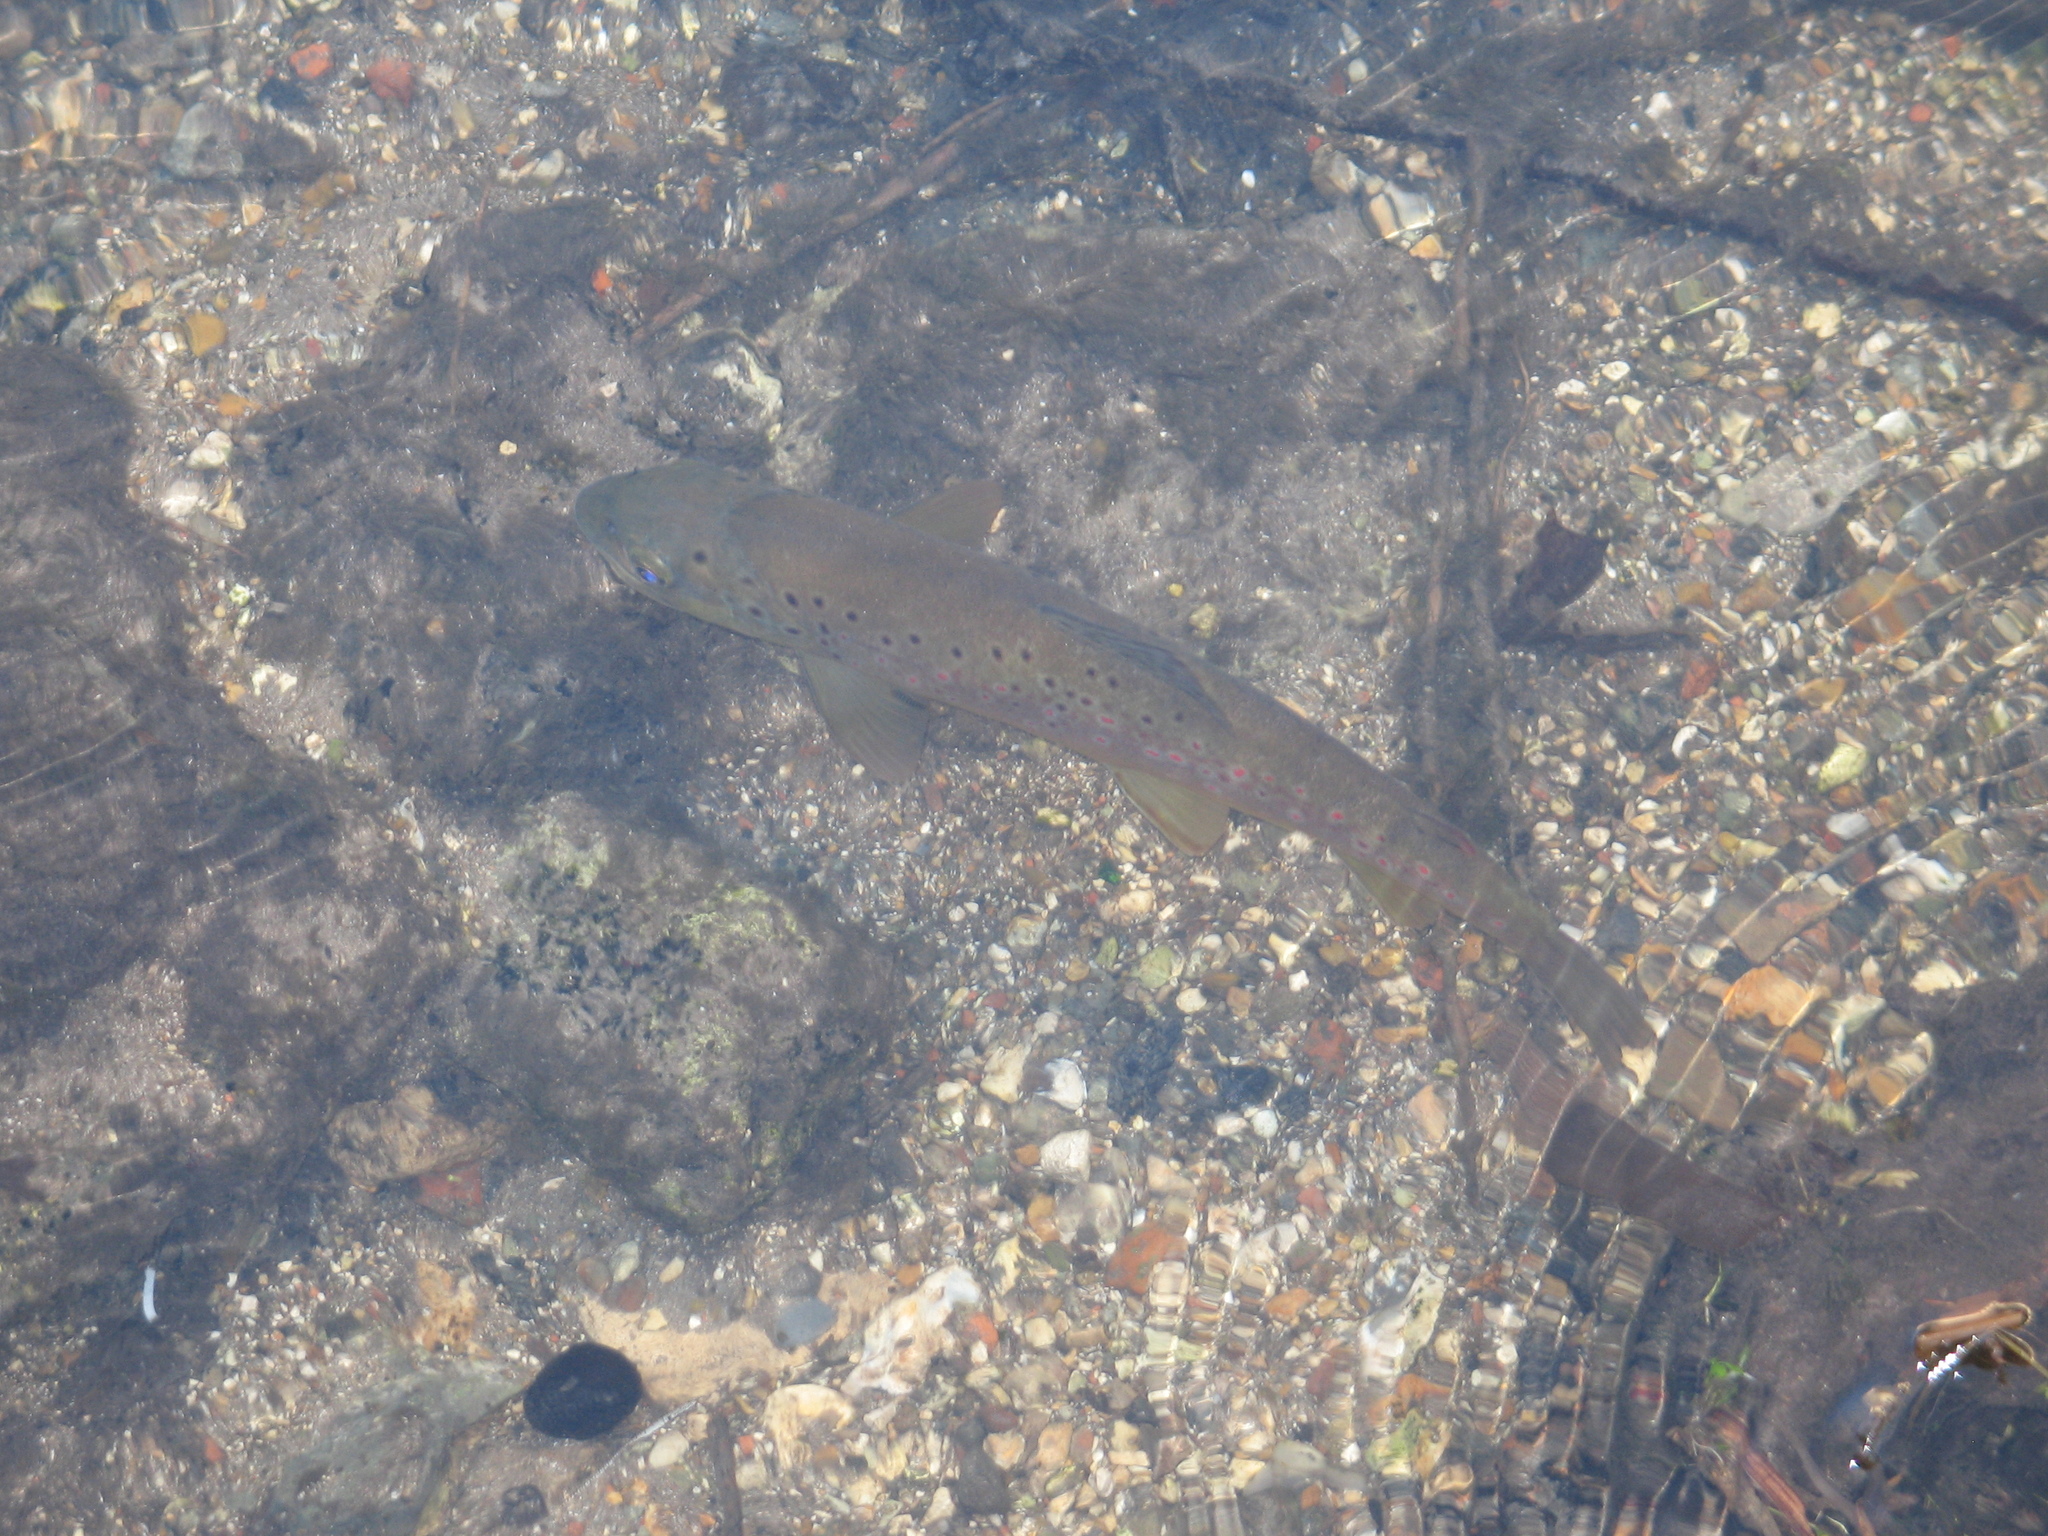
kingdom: Animalia
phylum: Chordata
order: Salmoniformes
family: Salmonidae
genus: Salmo
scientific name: Salmo trutta
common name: Brown trout
